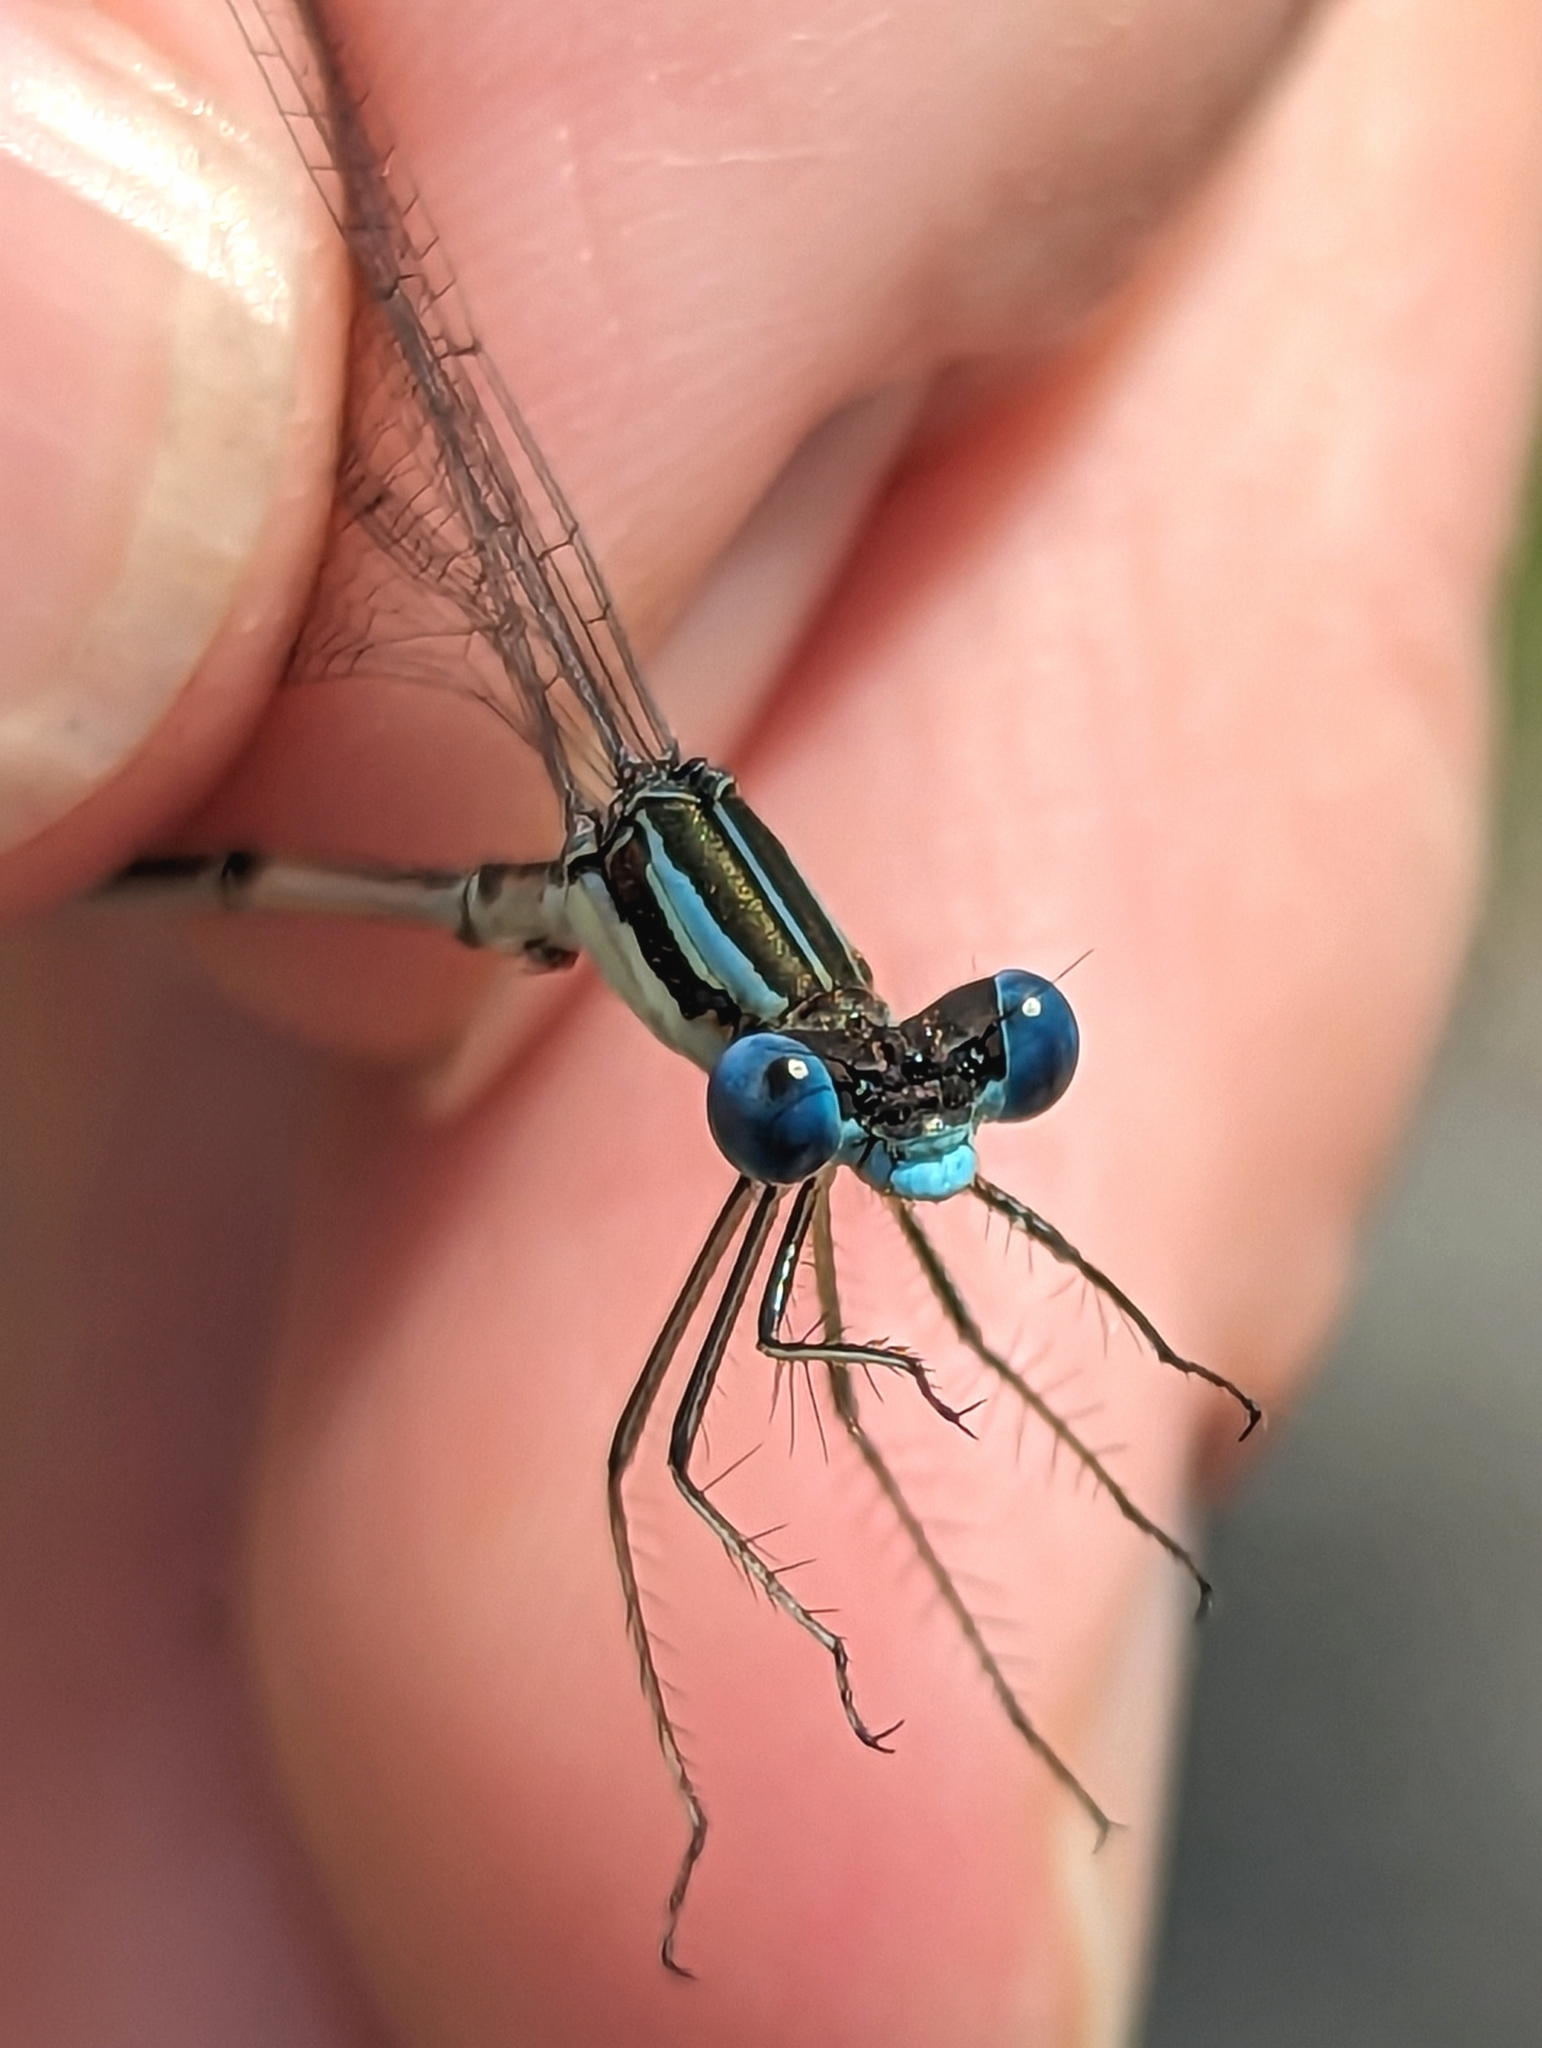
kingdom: Animalia
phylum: Arthropoda
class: Insecta
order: Odonata
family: Lestidae
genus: Lestes
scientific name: Lestes rectangularis
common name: Slender spreadwing
